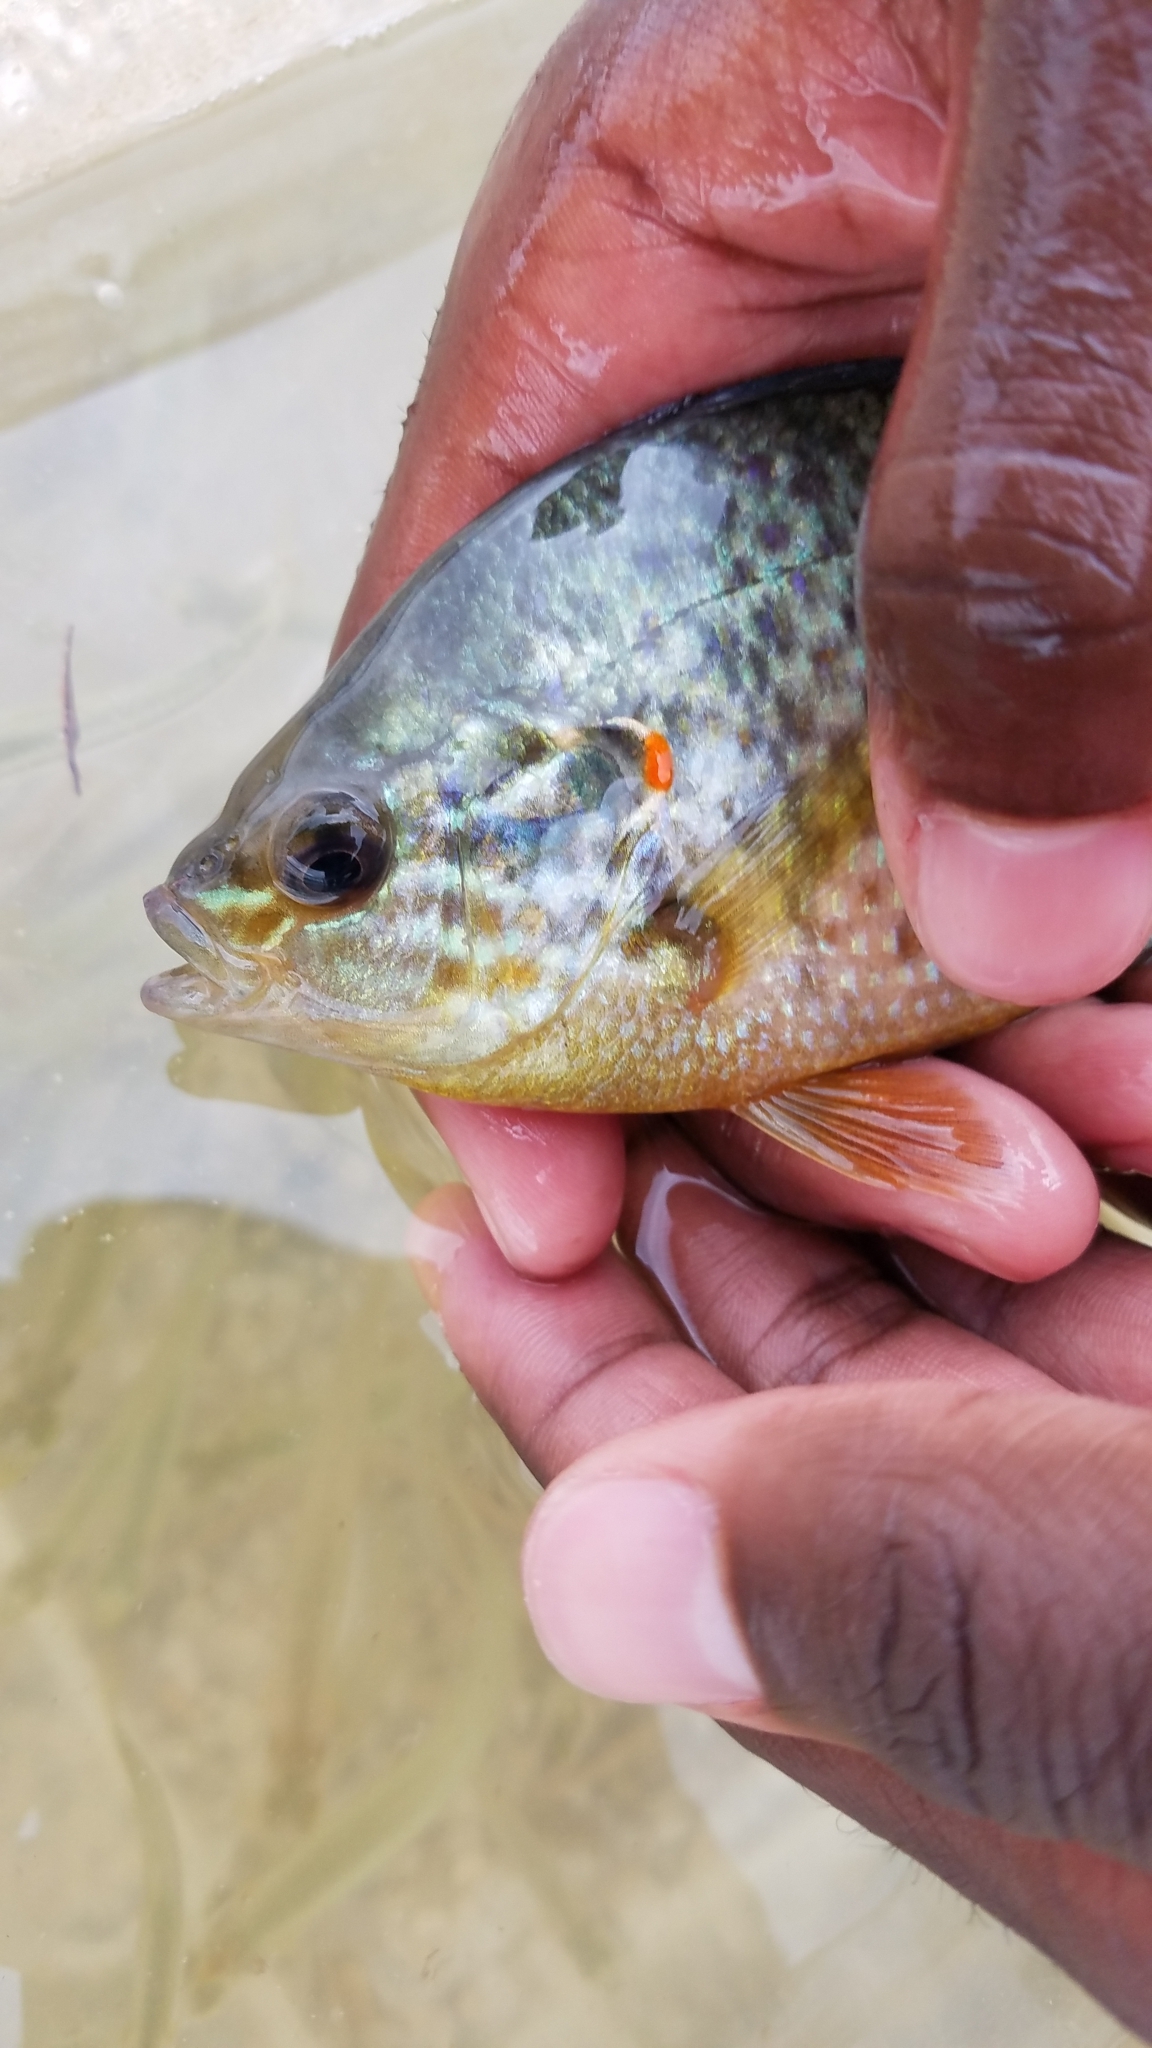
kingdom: Animalia
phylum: Chordata
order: Perciformes
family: Centrarchidae
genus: Lepomis
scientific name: Lepomis gibbosus
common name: Pumpkinseed
